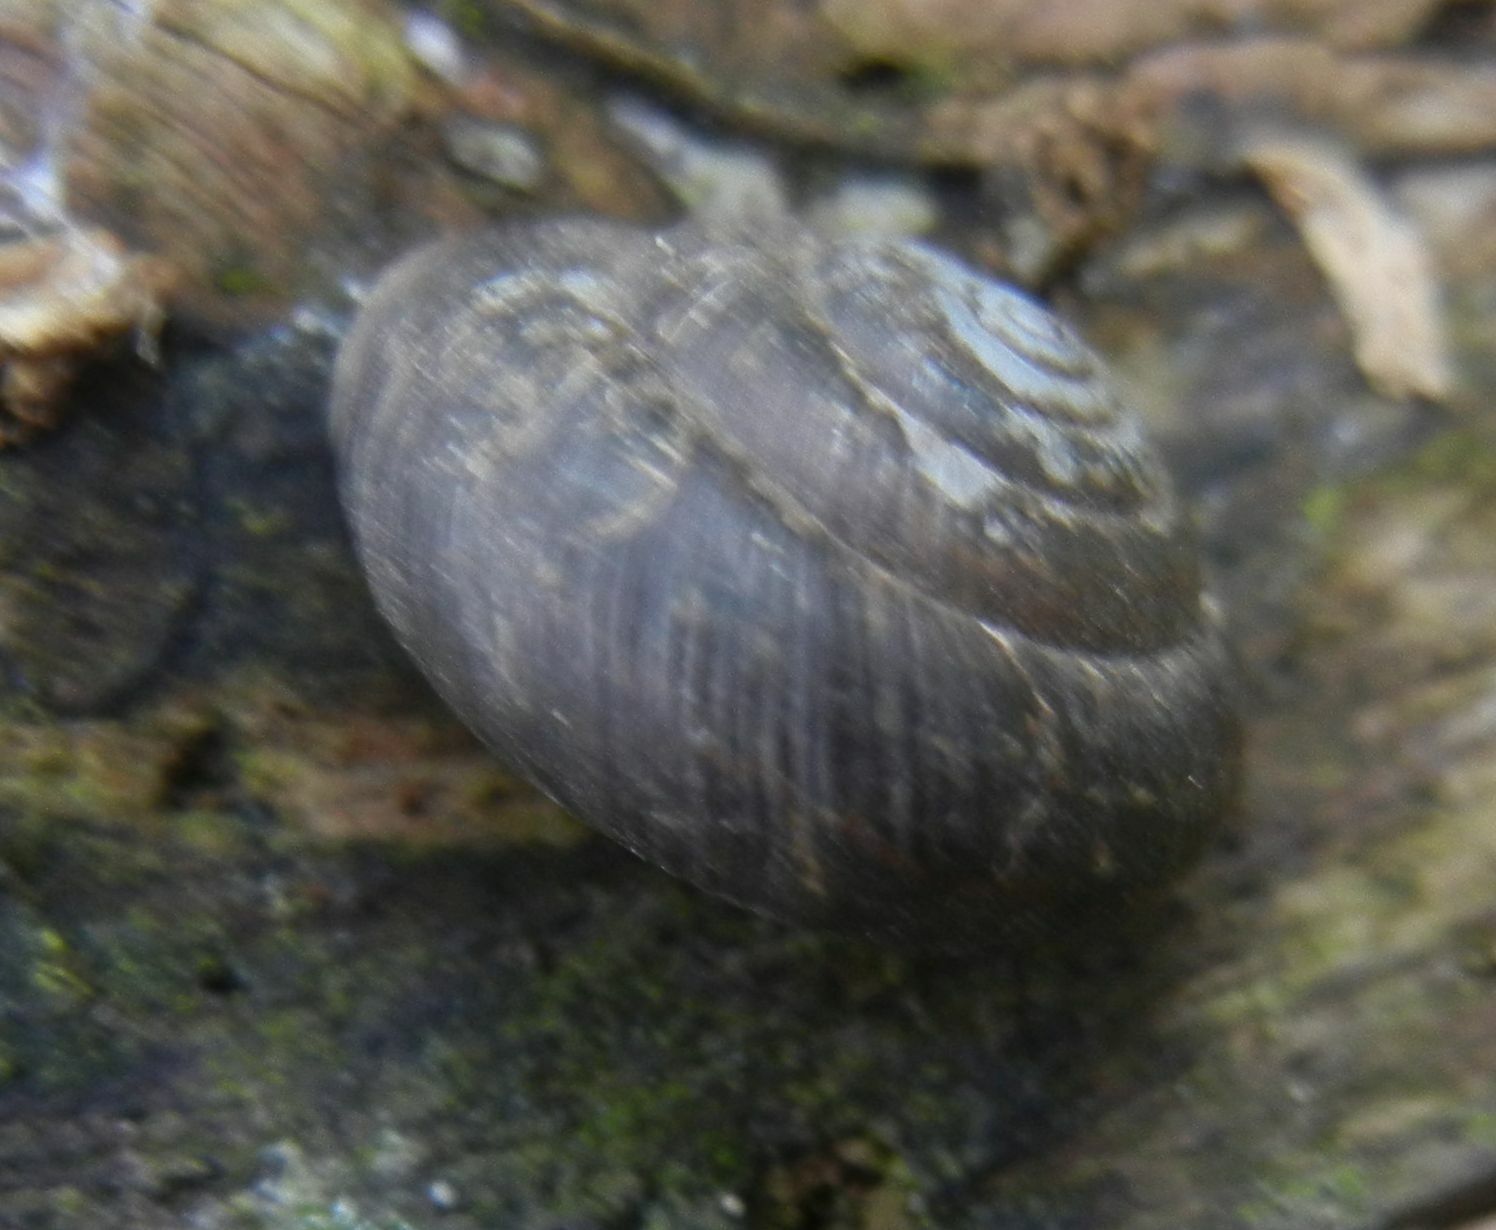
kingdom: Animalia
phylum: Mollusca
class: Gastropoda
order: Stylommatophora
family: Hygromiidae
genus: Trochulus
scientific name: Trochulus striolatus
